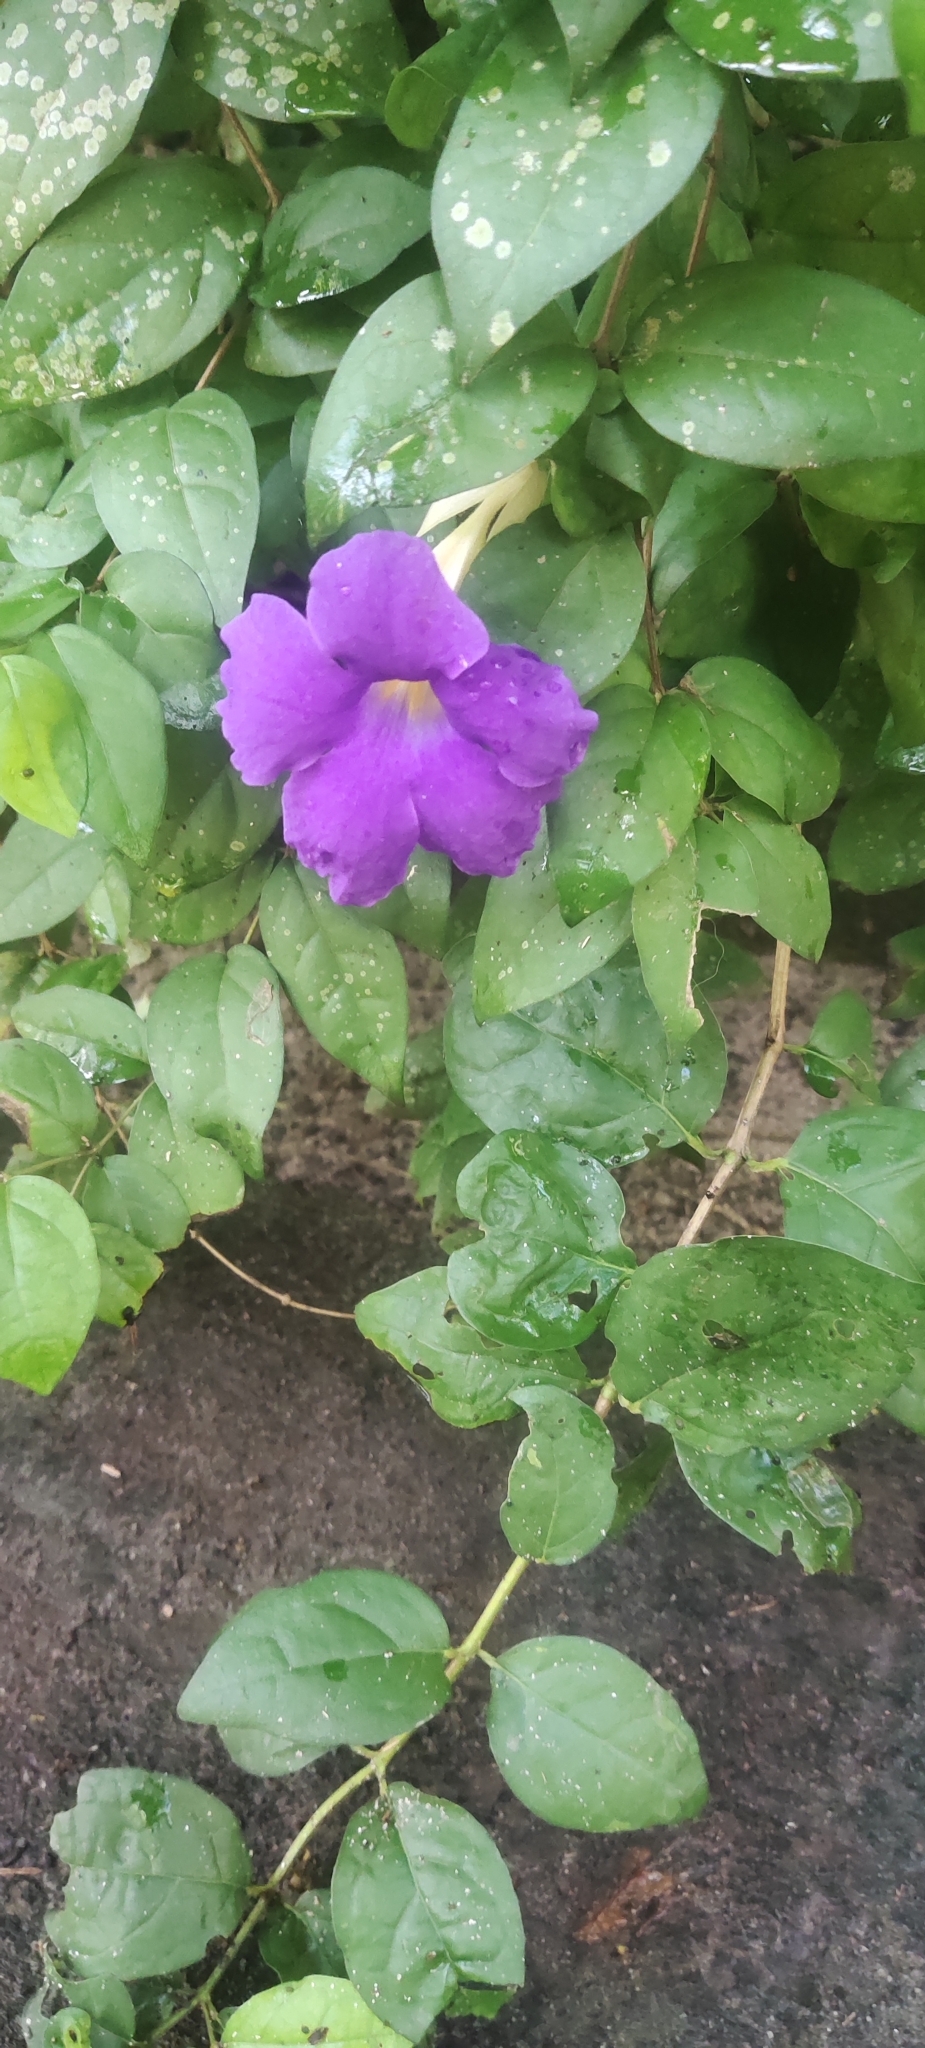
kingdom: Plantae
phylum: Tracheophyta
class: Magnoliopsida
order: Lamiales
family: Acanthaceae
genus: Thunbergia
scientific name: Thunbergia erecta
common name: Bush clockvine
